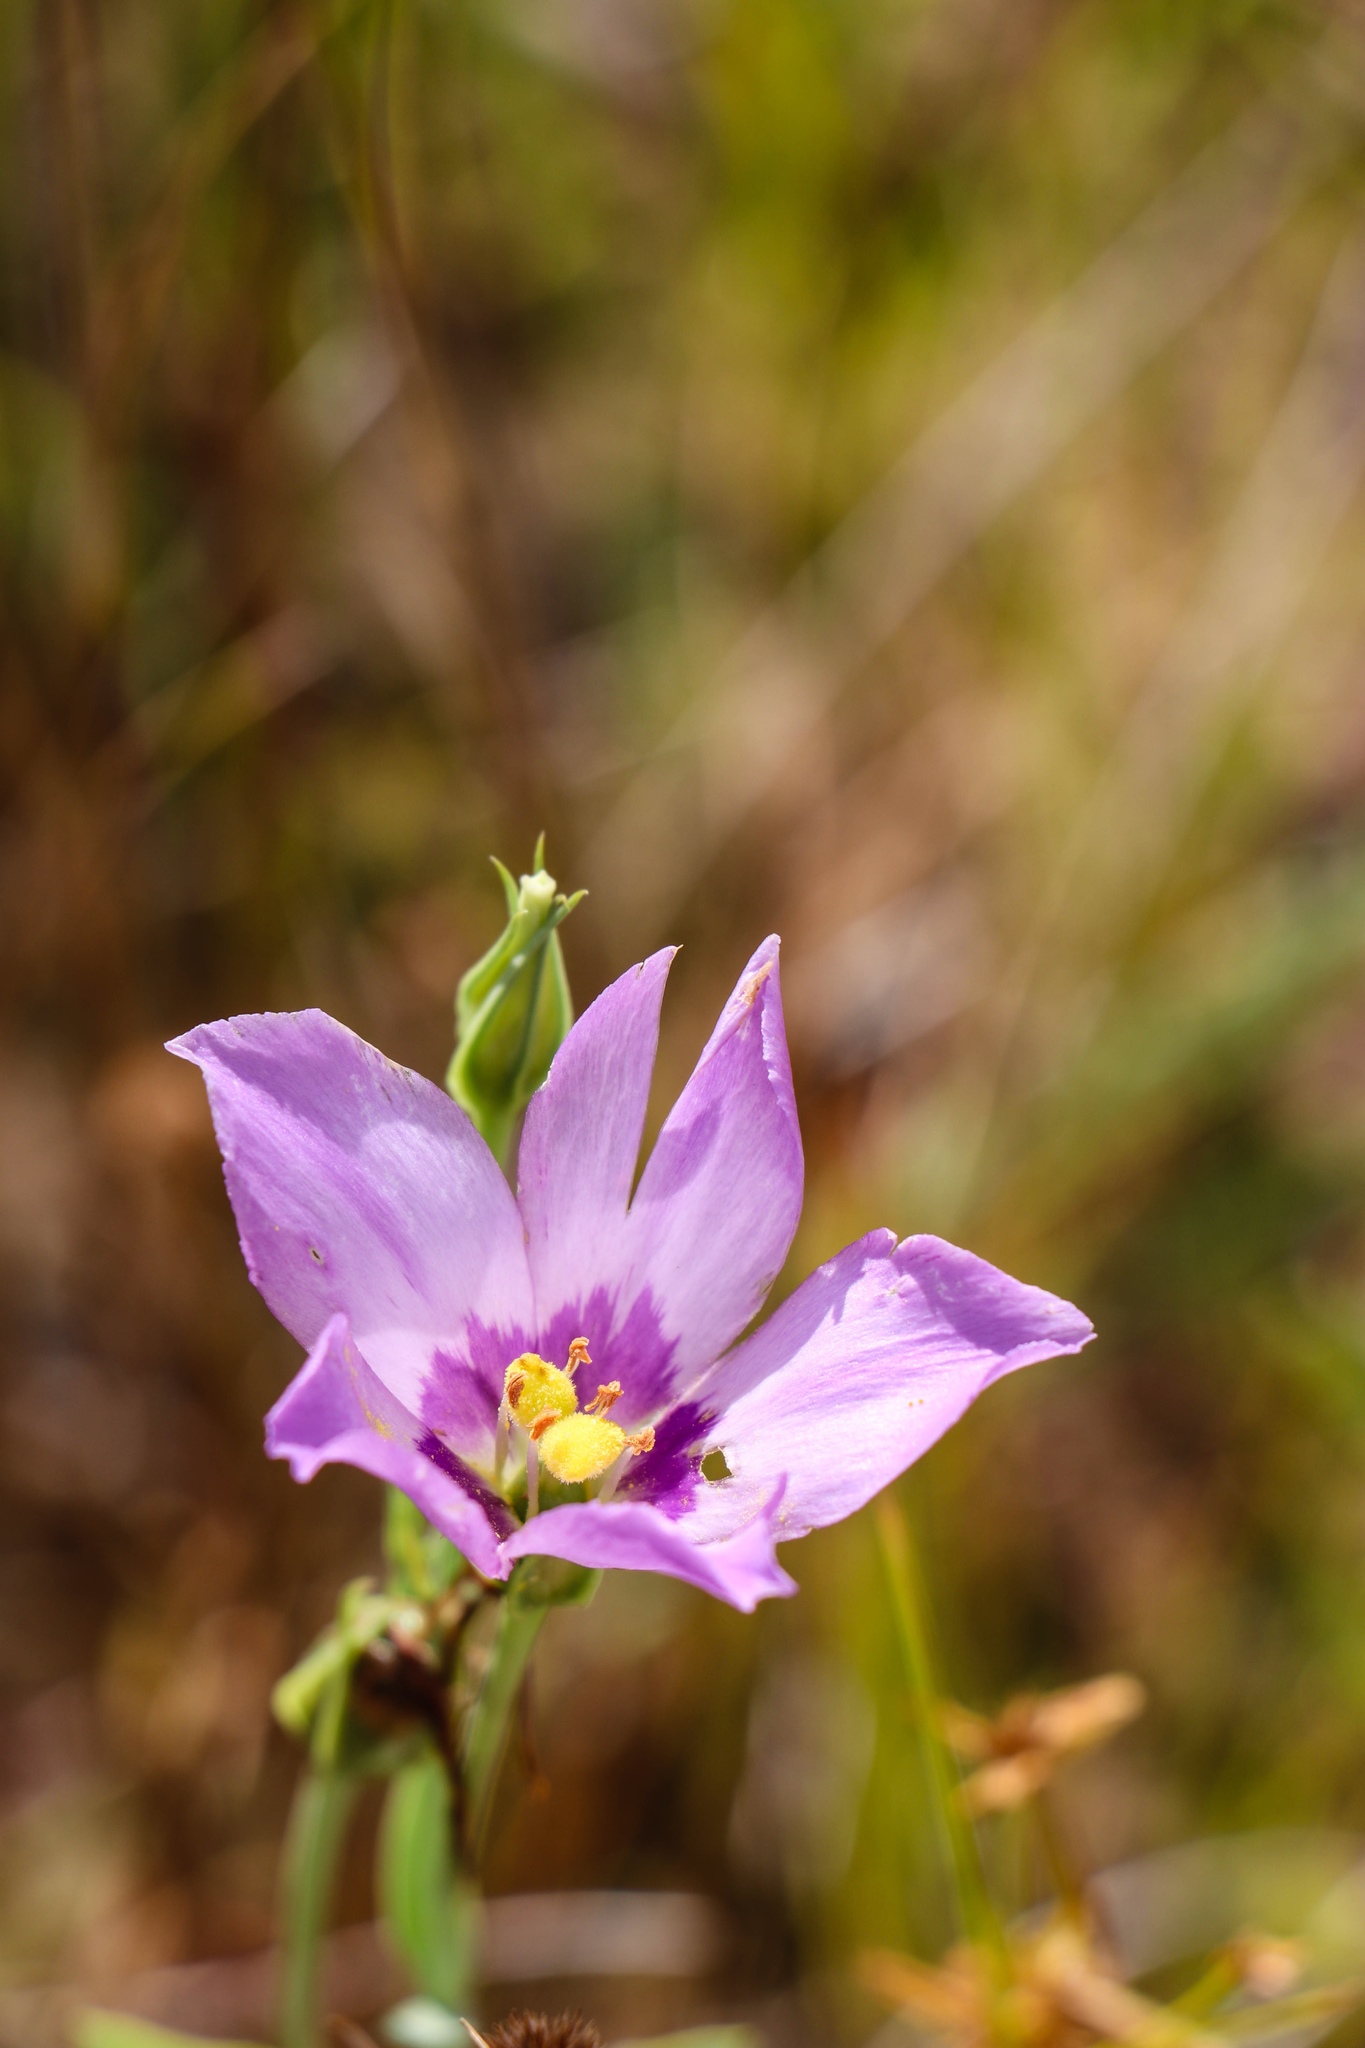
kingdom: Plantae
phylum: Tracheophyta
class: Magnoliopsida
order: Gentianales
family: Gentianaceae
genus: Eustoma
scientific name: Eustoma exaltatum
